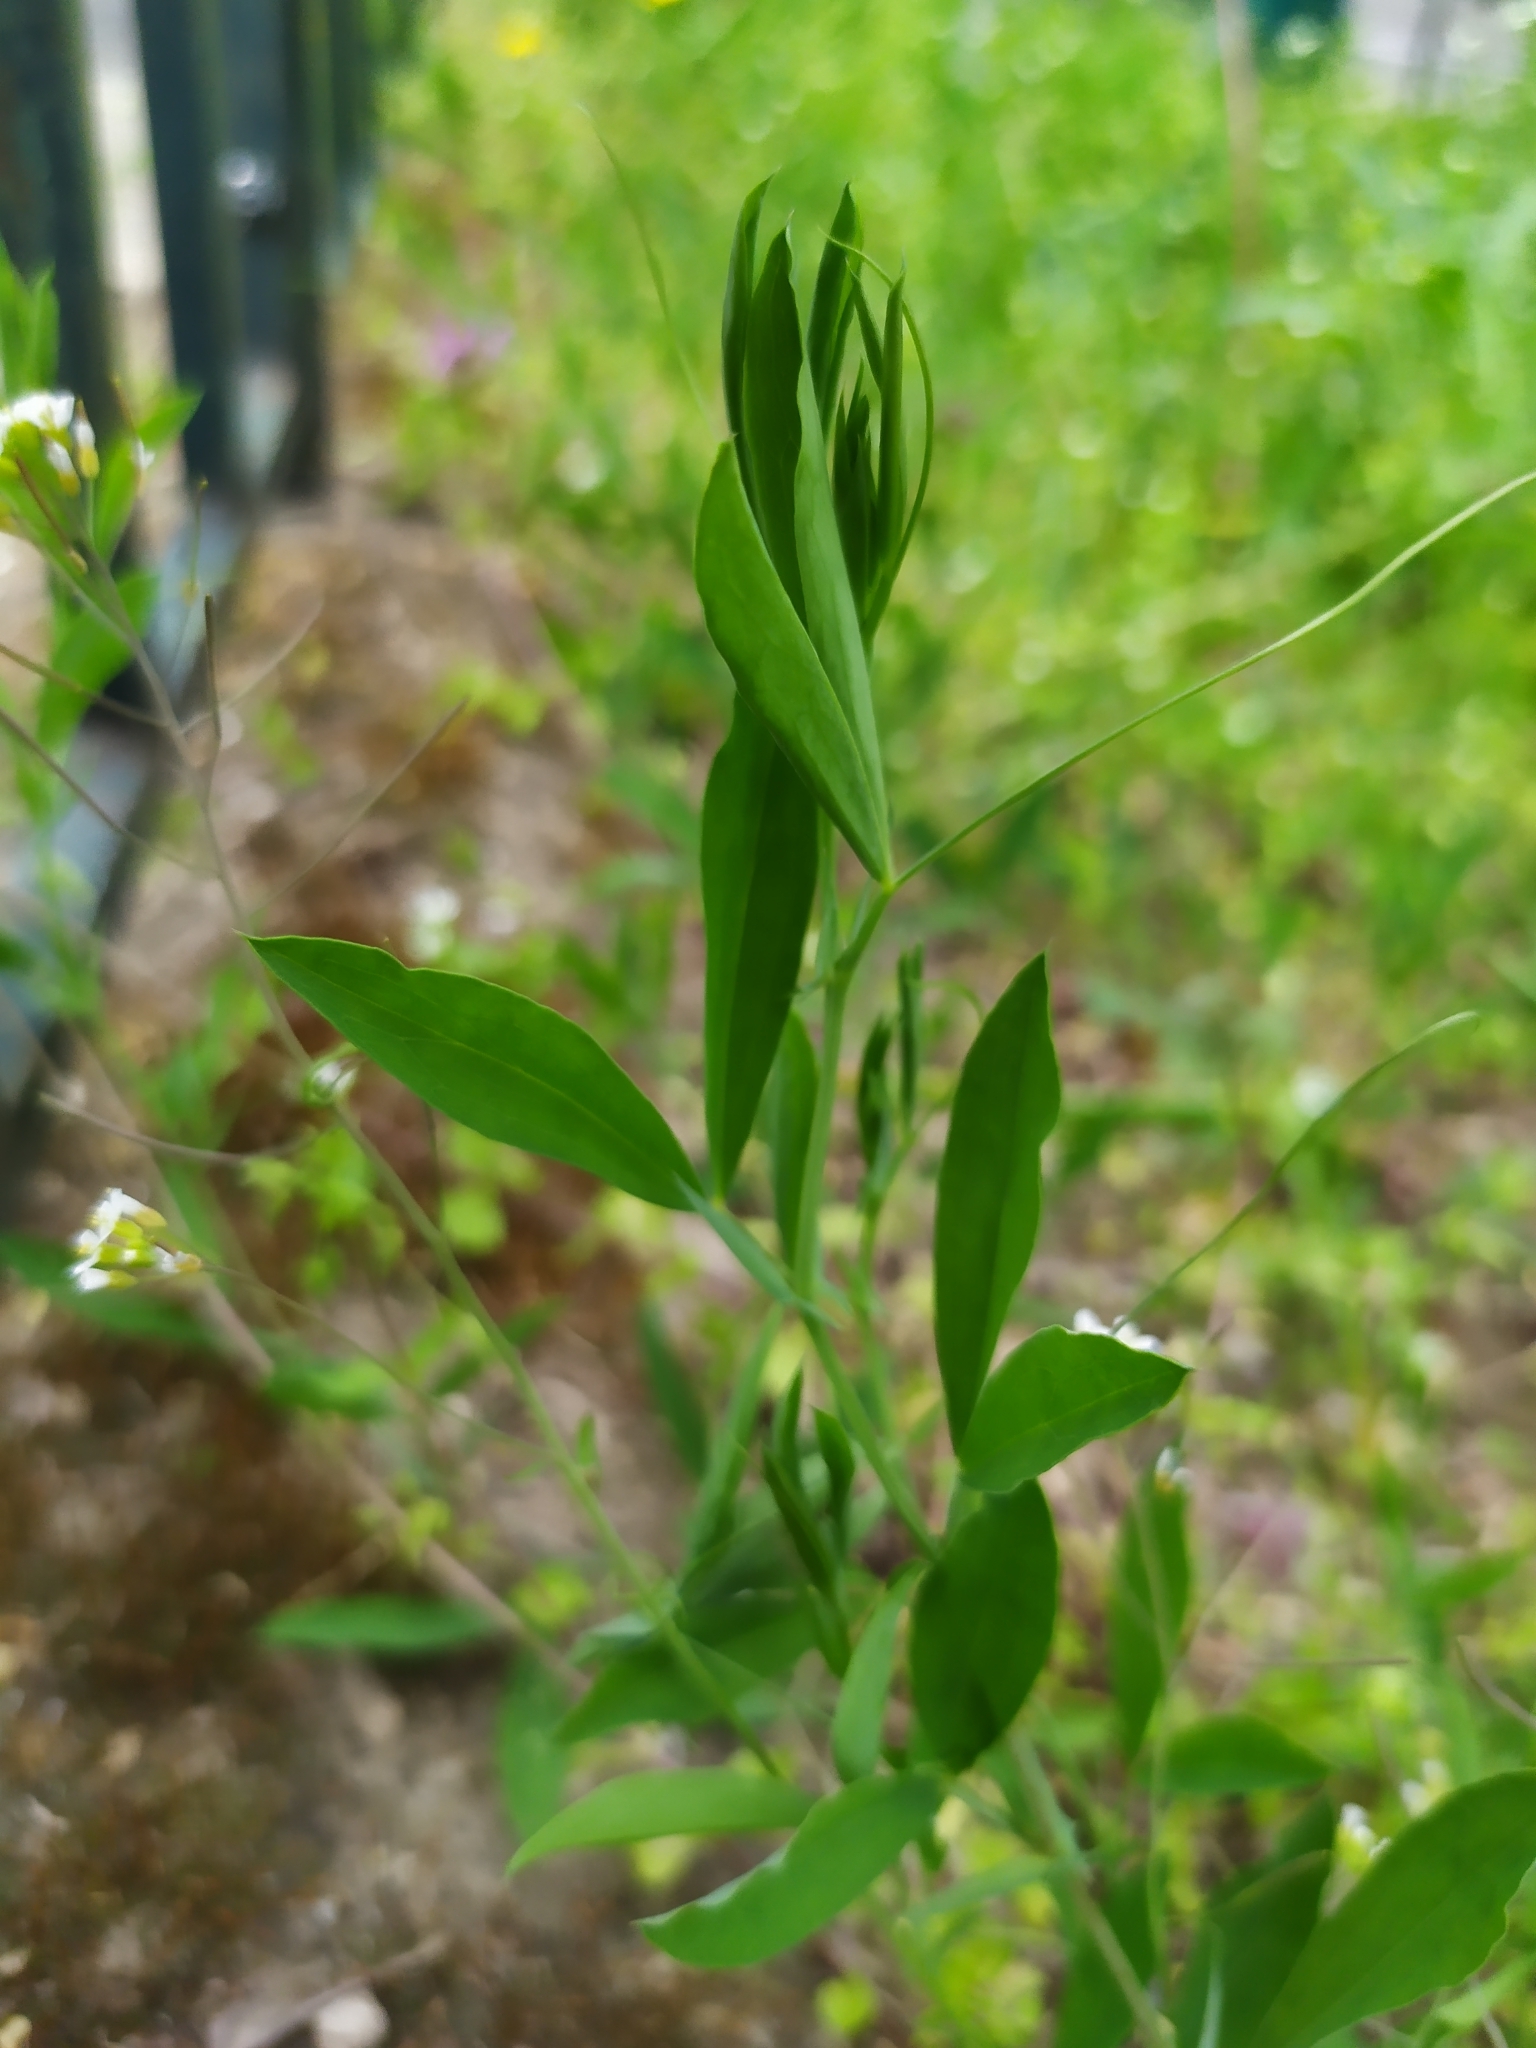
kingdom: Plantae
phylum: Tracheophyta
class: Magnoliopsida
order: Fabales
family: Fabaceae
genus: Lathyrus
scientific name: Lathyrus tuberosus
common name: Tuberous pea
